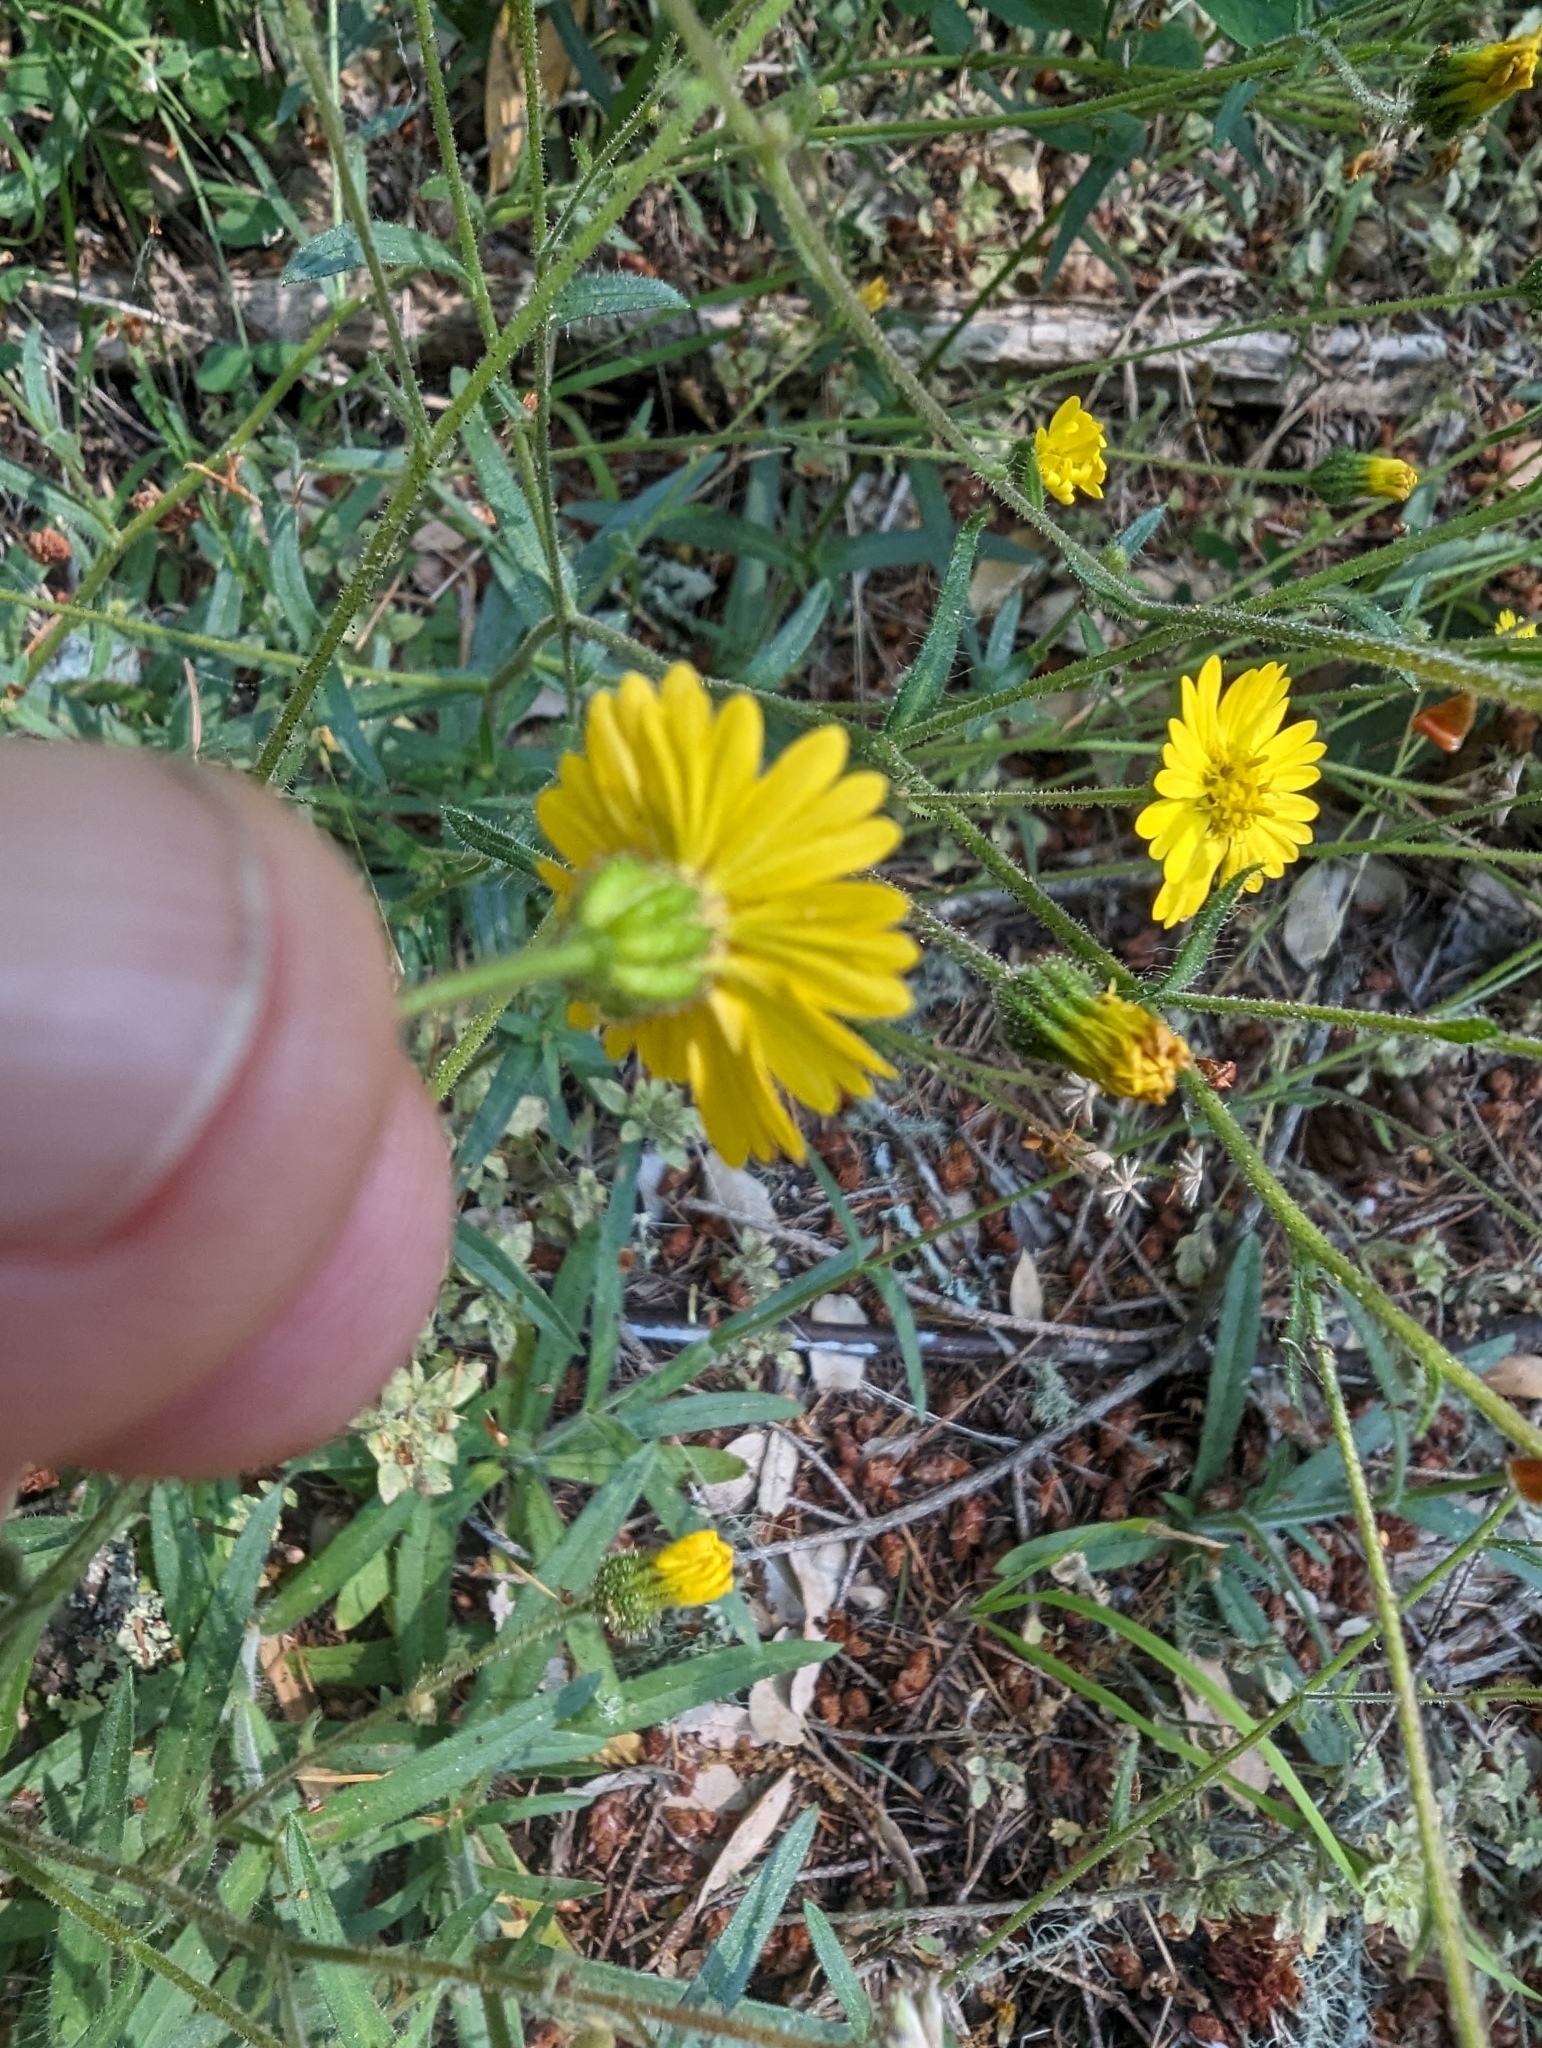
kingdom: Plantae
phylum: Tracheophyta
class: Magnoliopsida
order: Asterales
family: Asteraceae
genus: Anisocarpus
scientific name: Anisocarpus madioides
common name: Woodland madia
